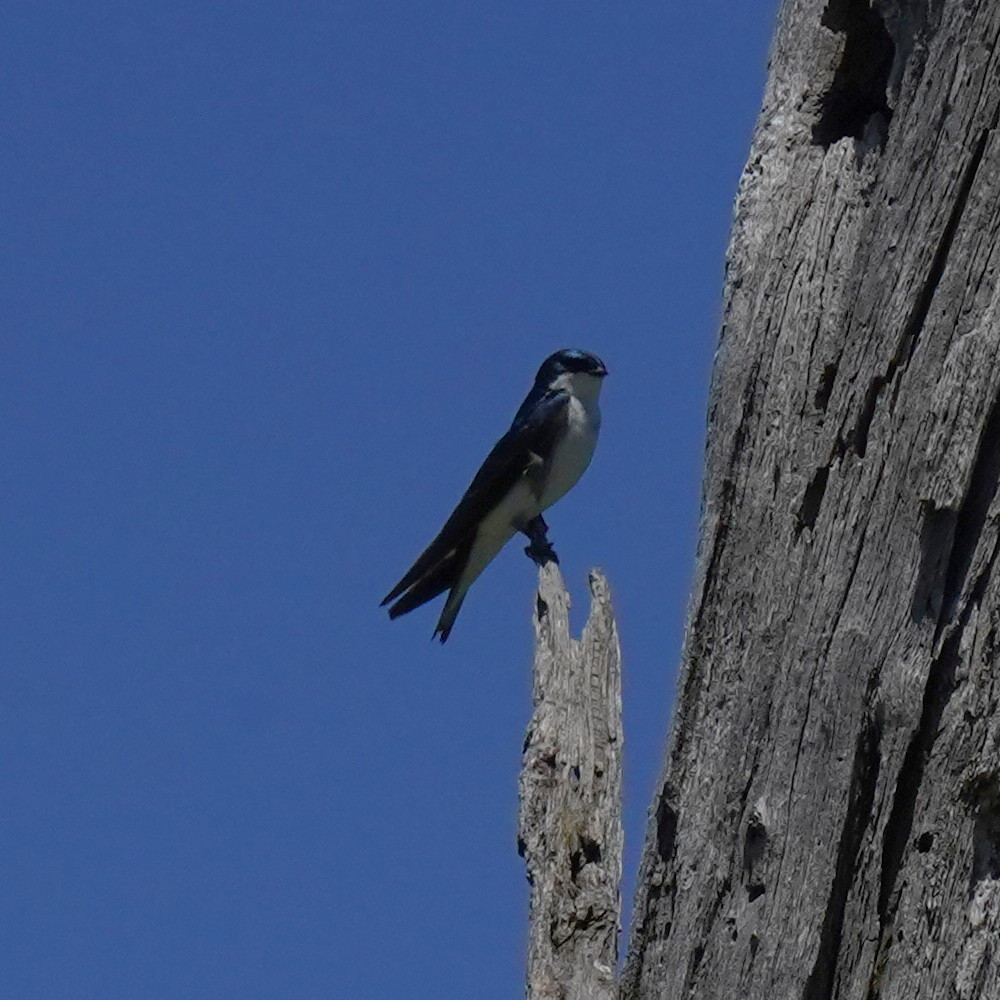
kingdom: Animalia
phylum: Chordata
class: Aves
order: Passeriformes
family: Hirundinidae
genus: Tachycineta
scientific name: Tachycineta bicolor
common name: Tree swallow
